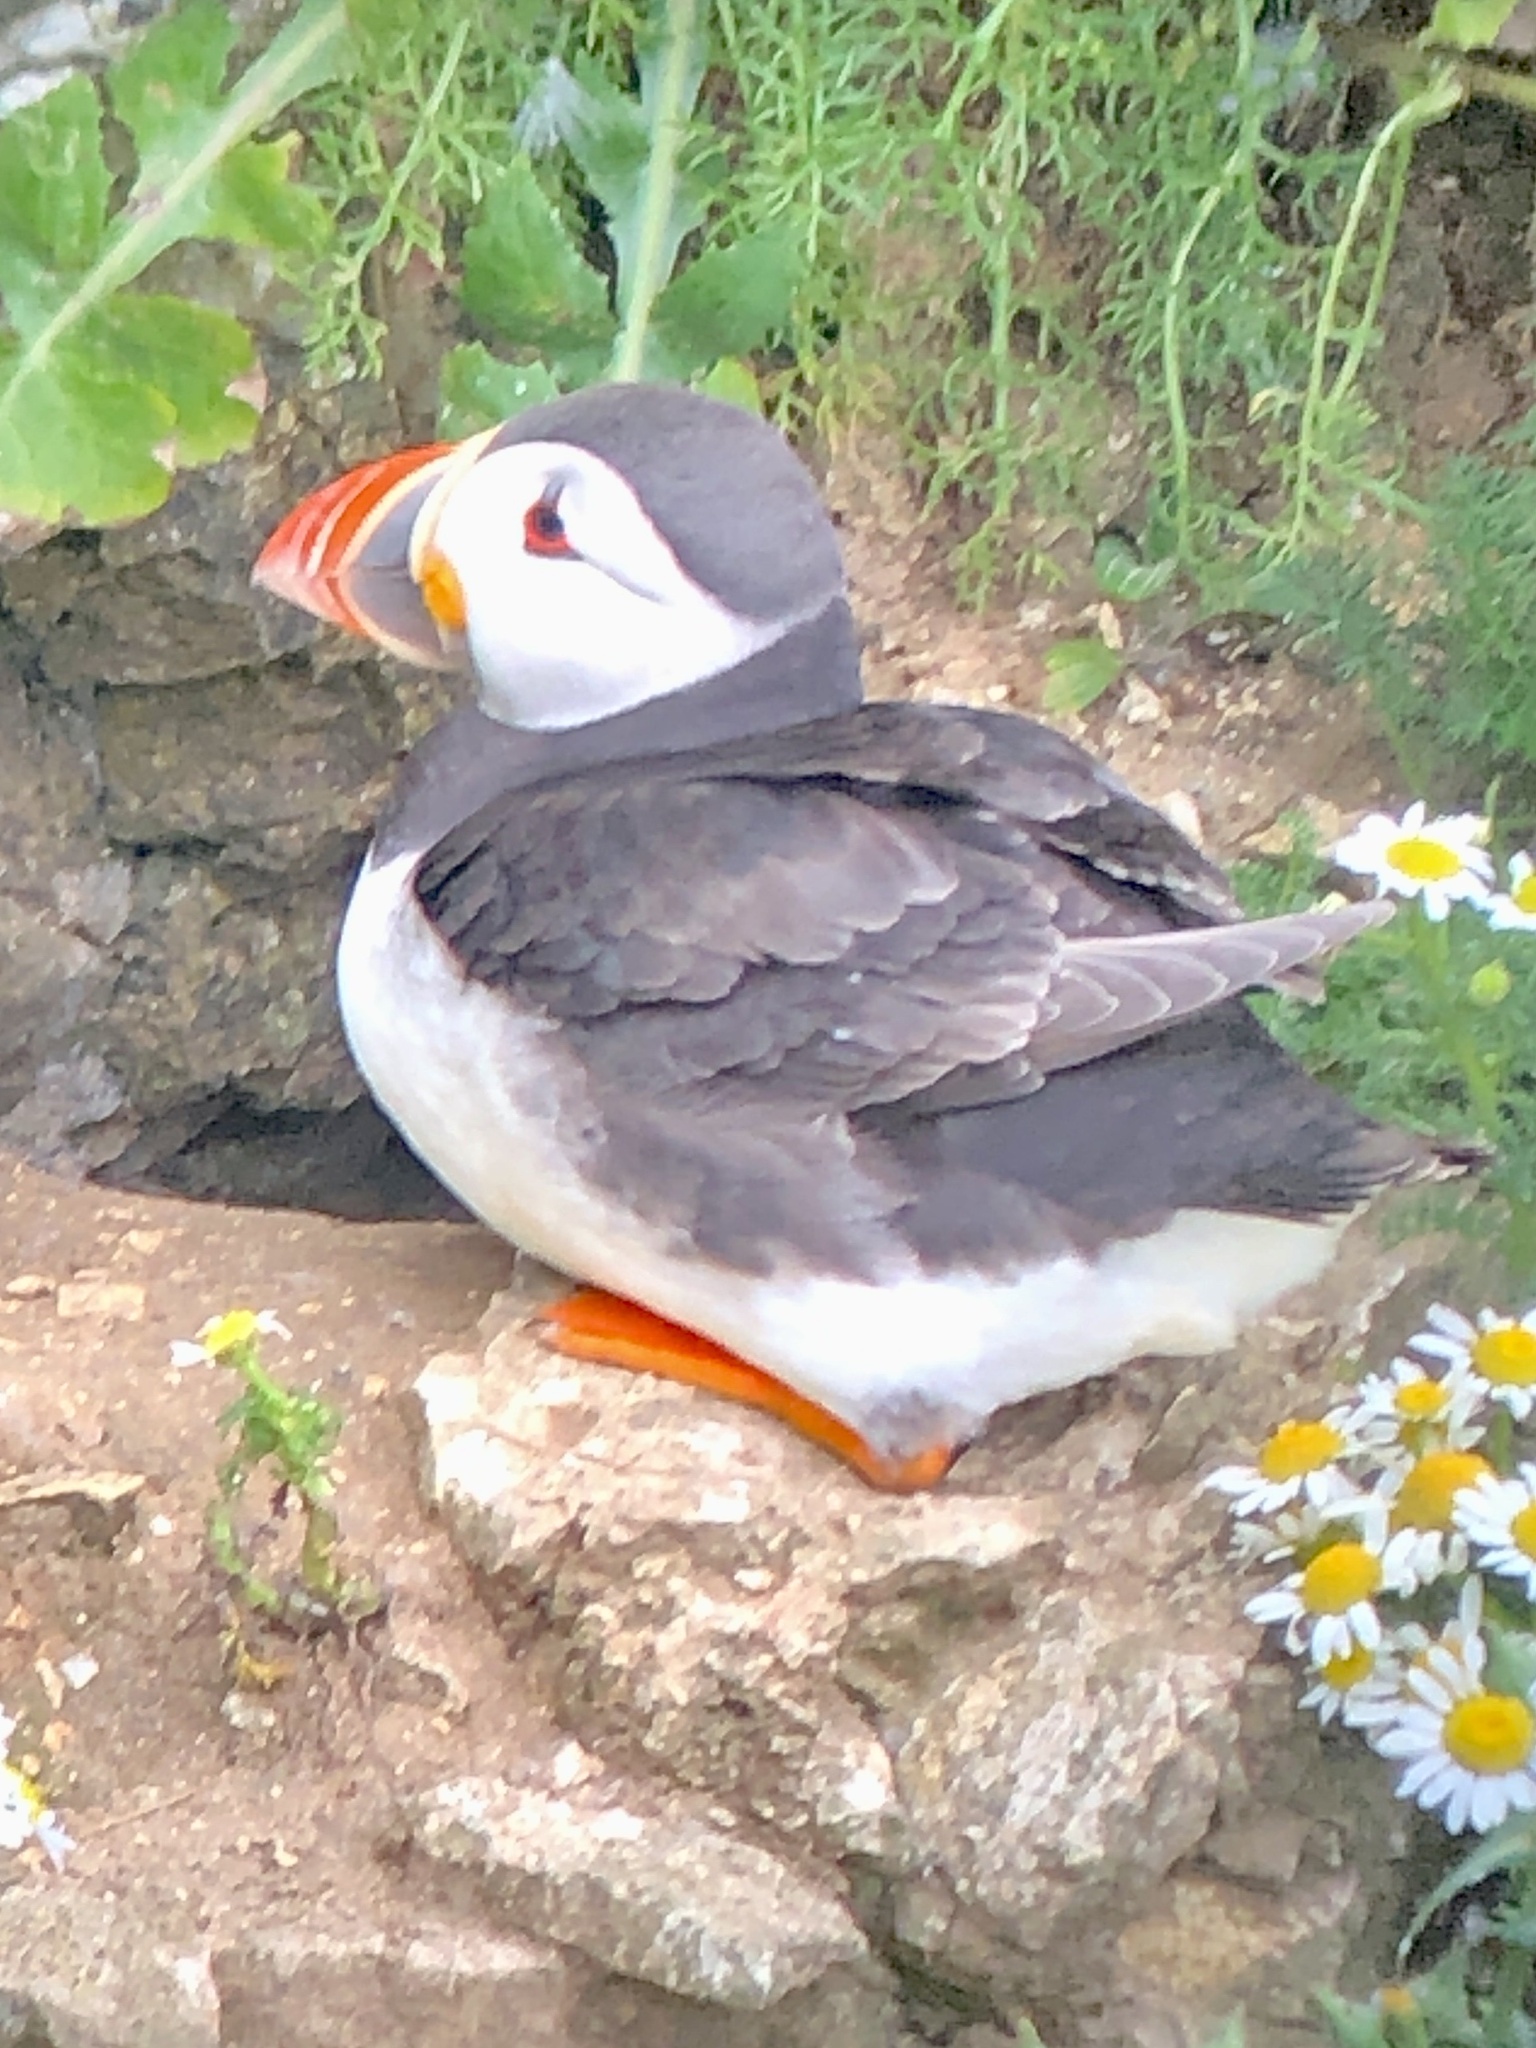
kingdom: Animalia
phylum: Chordata
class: Aves
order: Charadriiformes
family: Alcidae
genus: Fratercula
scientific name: Fratercula arctica
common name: Atlantic puffin
